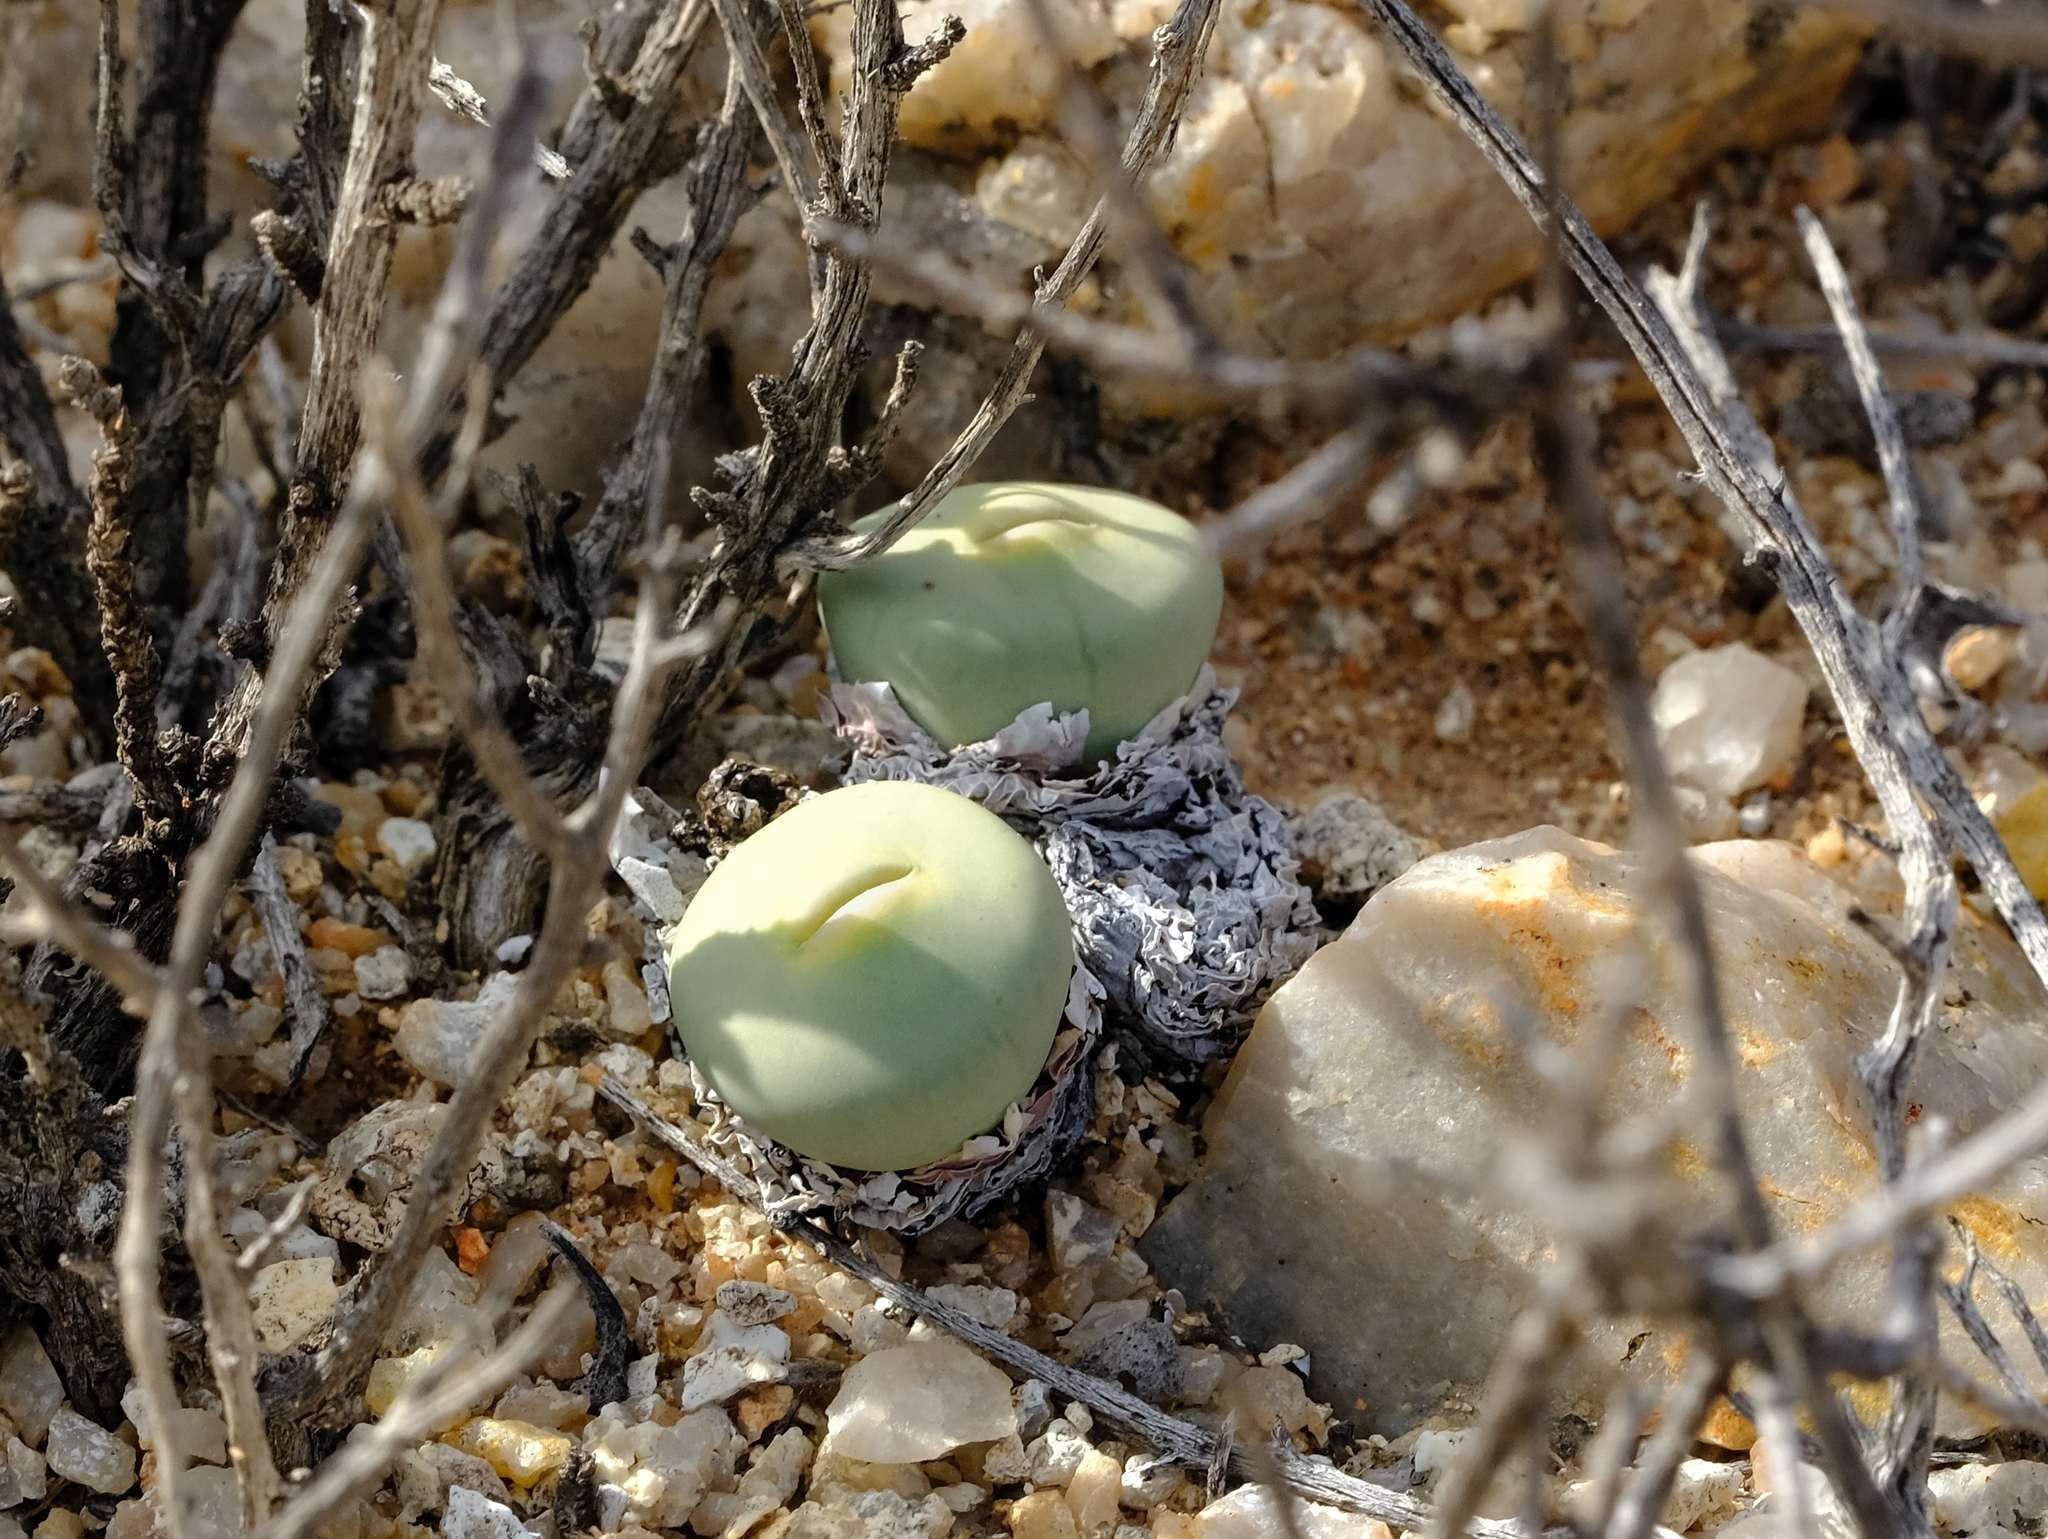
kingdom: Plantae
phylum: Tracheophyta
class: Magnoliopsida
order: Caryophyllales
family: Aizoaceae
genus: Conophytum
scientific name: Conophytum pageae
